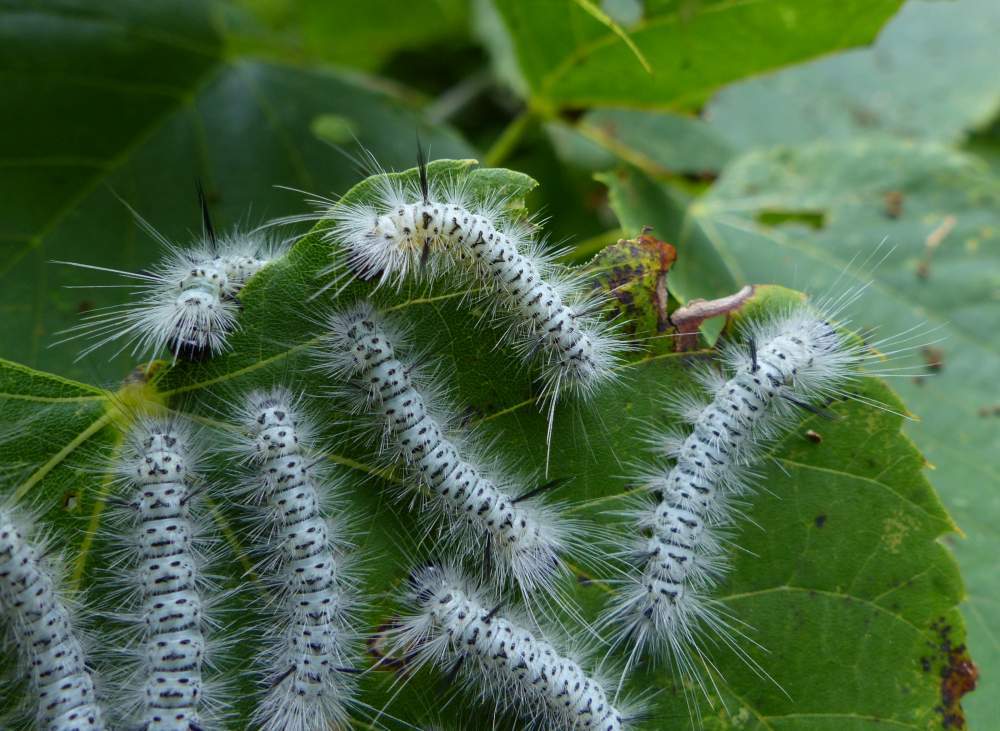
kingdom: Animalia
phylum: Arthropoda
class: Insecta
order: Lepidoptera
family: Erebidae
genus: Lophocampa
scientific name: Lophocampa caryae
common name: Hickory tussock moth
